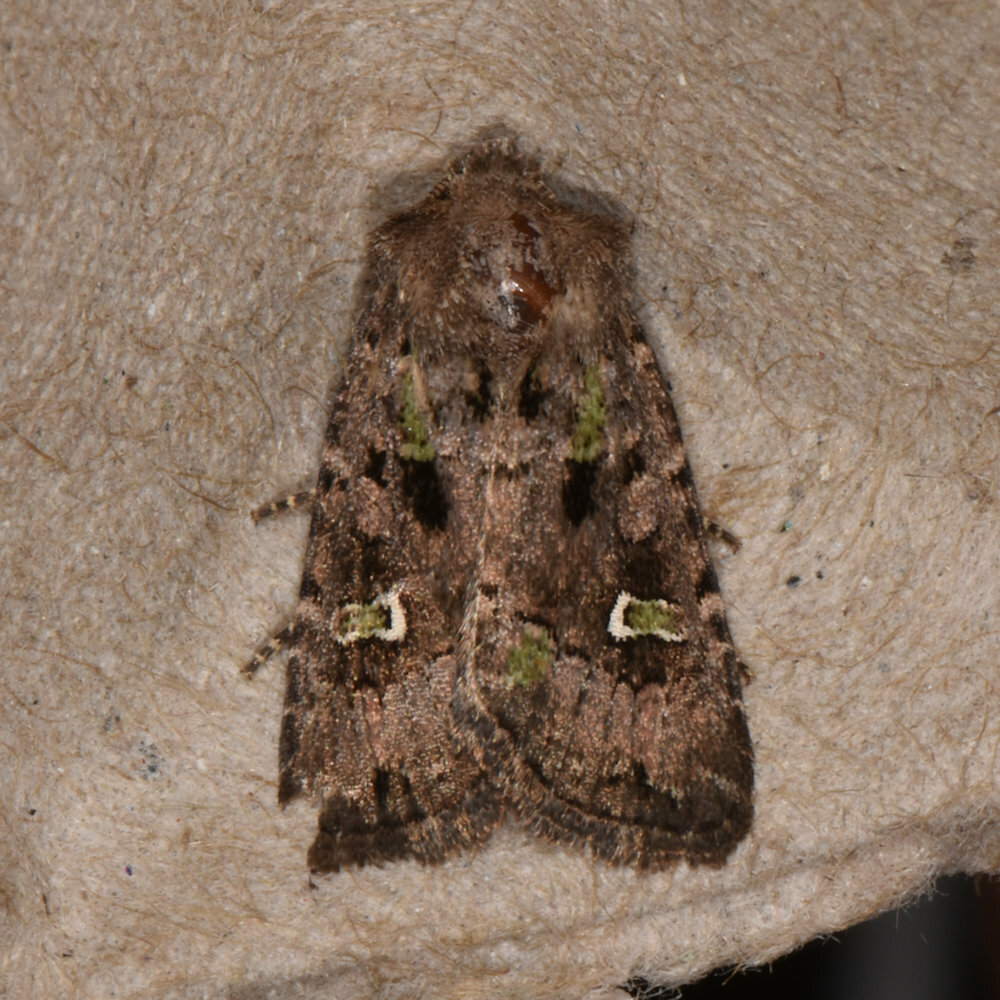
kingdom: Animalia
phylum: Arthropoda
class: Insecta
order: Lepidoptera
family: Noctuidae
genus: Lacinipolia
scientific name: Lacinipolia renigera
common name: Kidney-spotted minor
